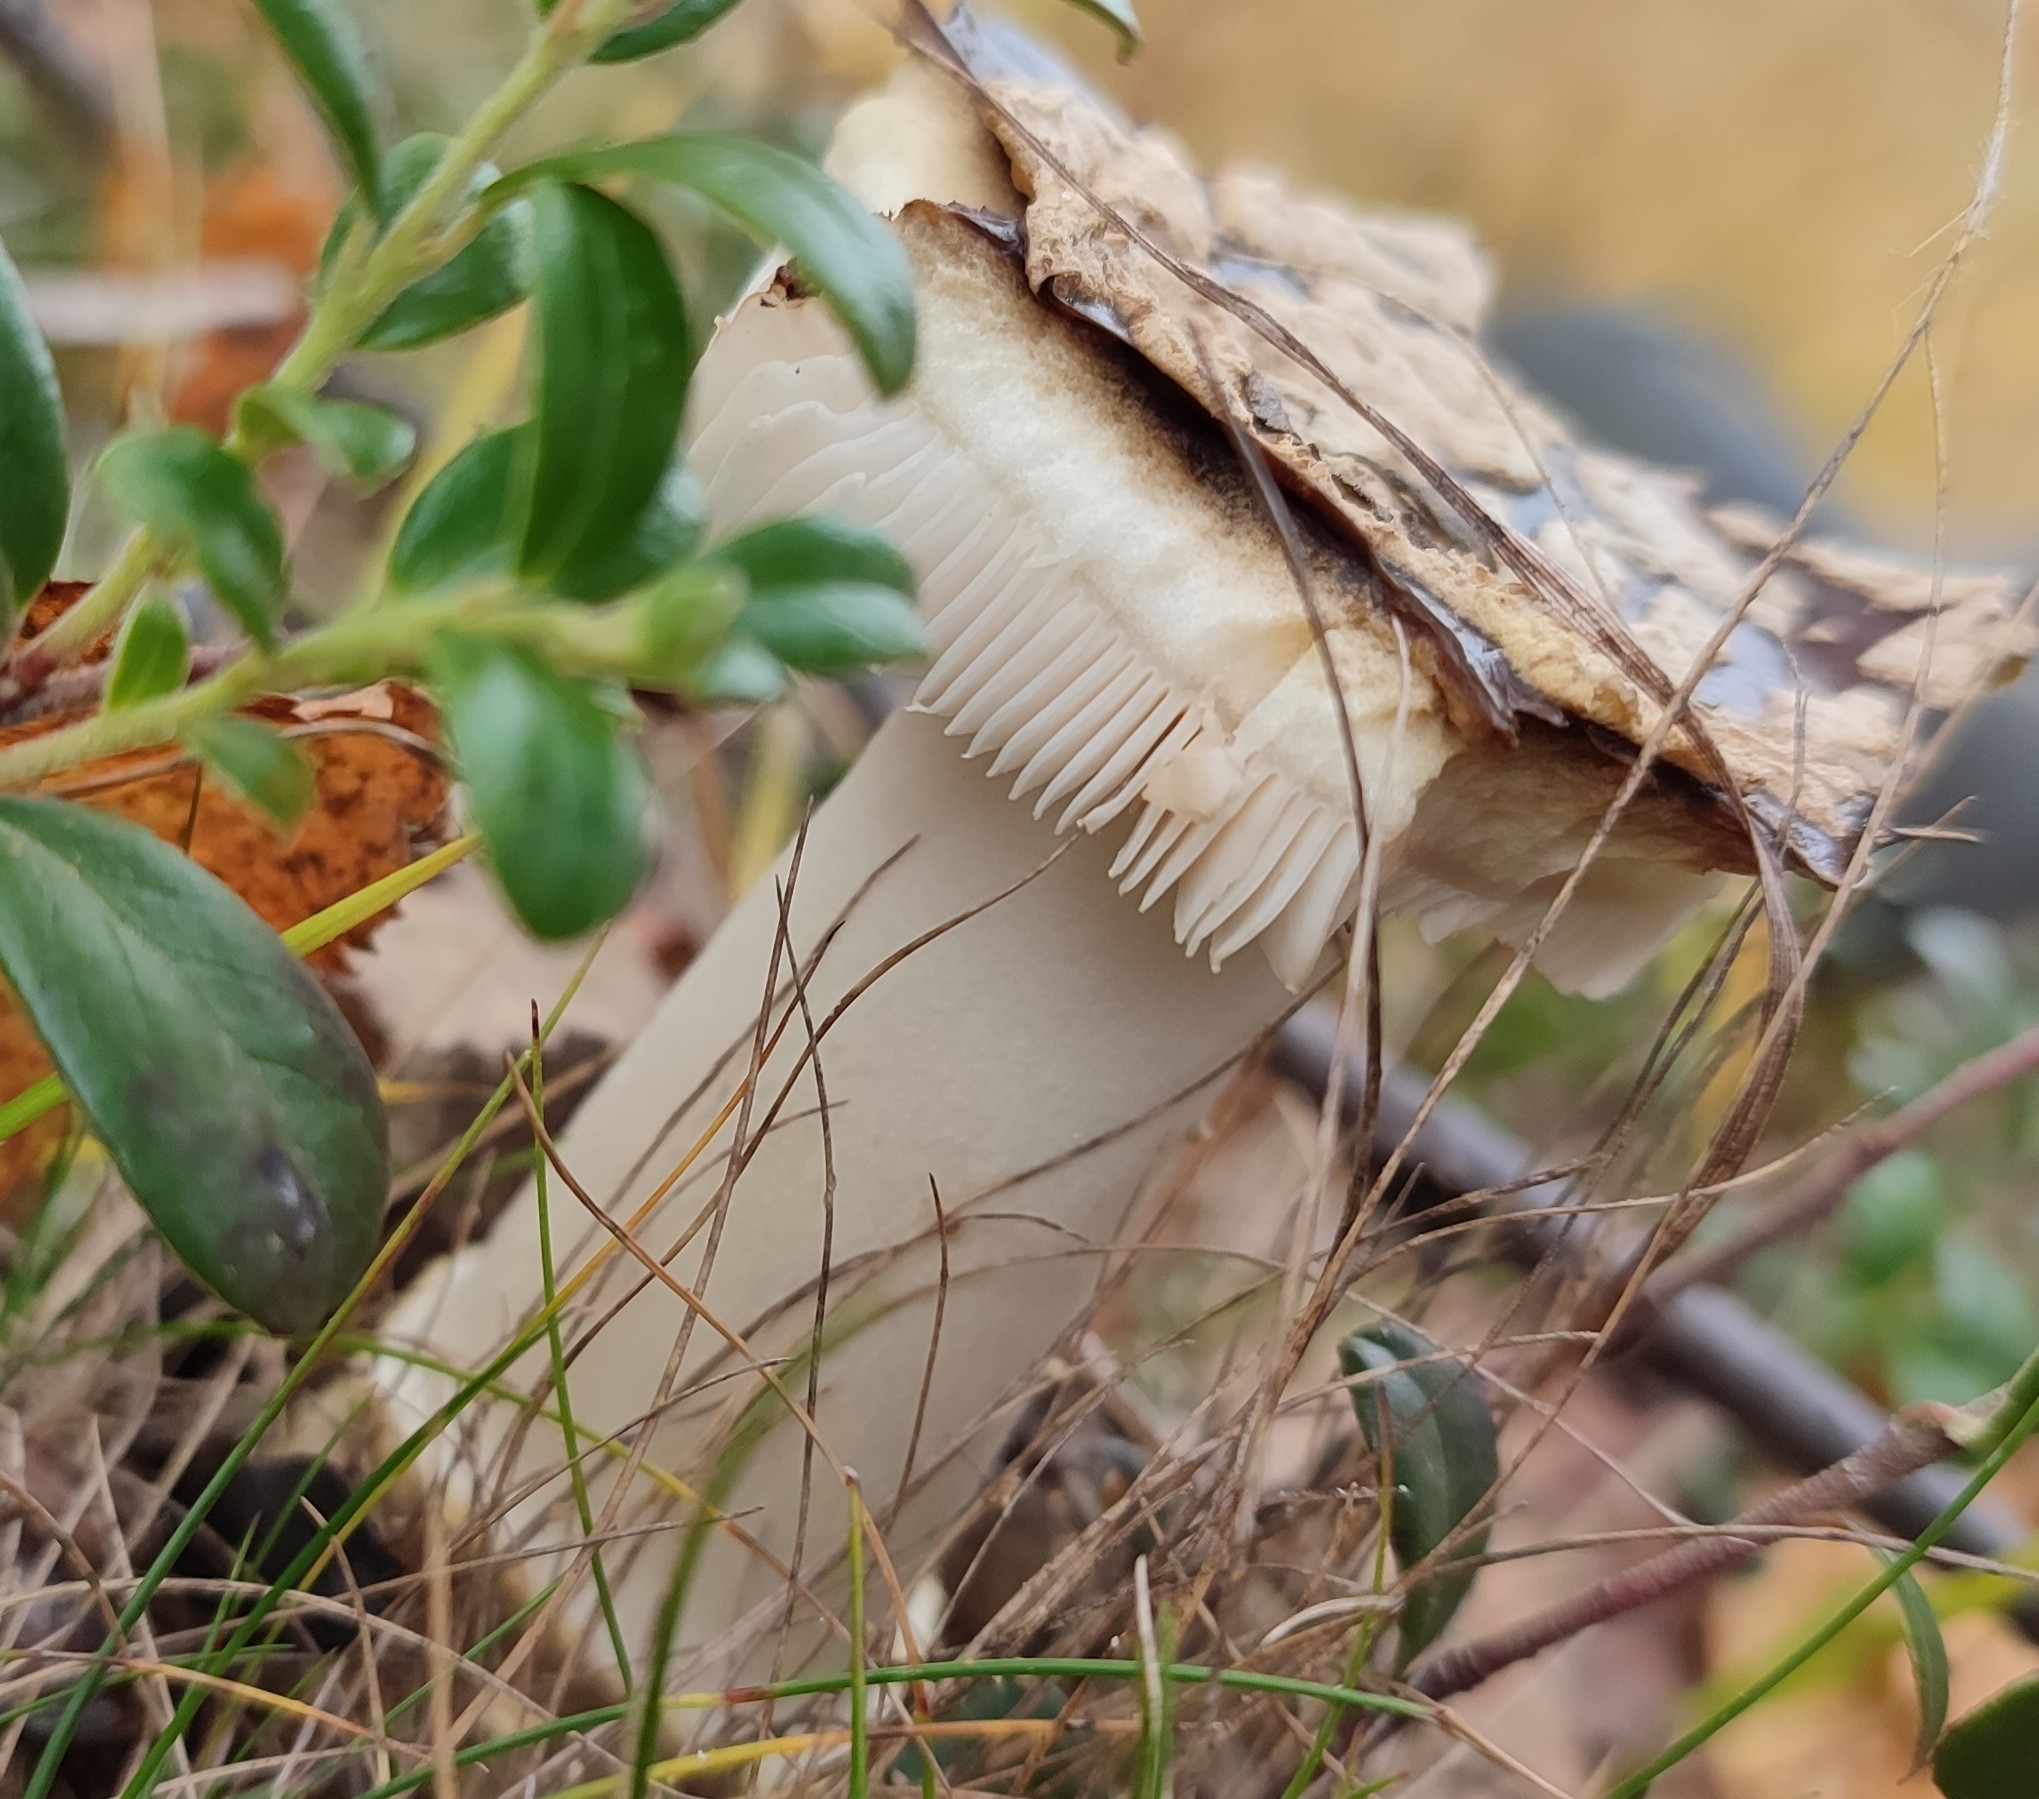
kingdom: Fungi
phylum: Basidiomycota
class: Agaricomycetes
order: Agaricales
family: Amanitaceae
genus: Amanita
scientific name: Amanita regalis
